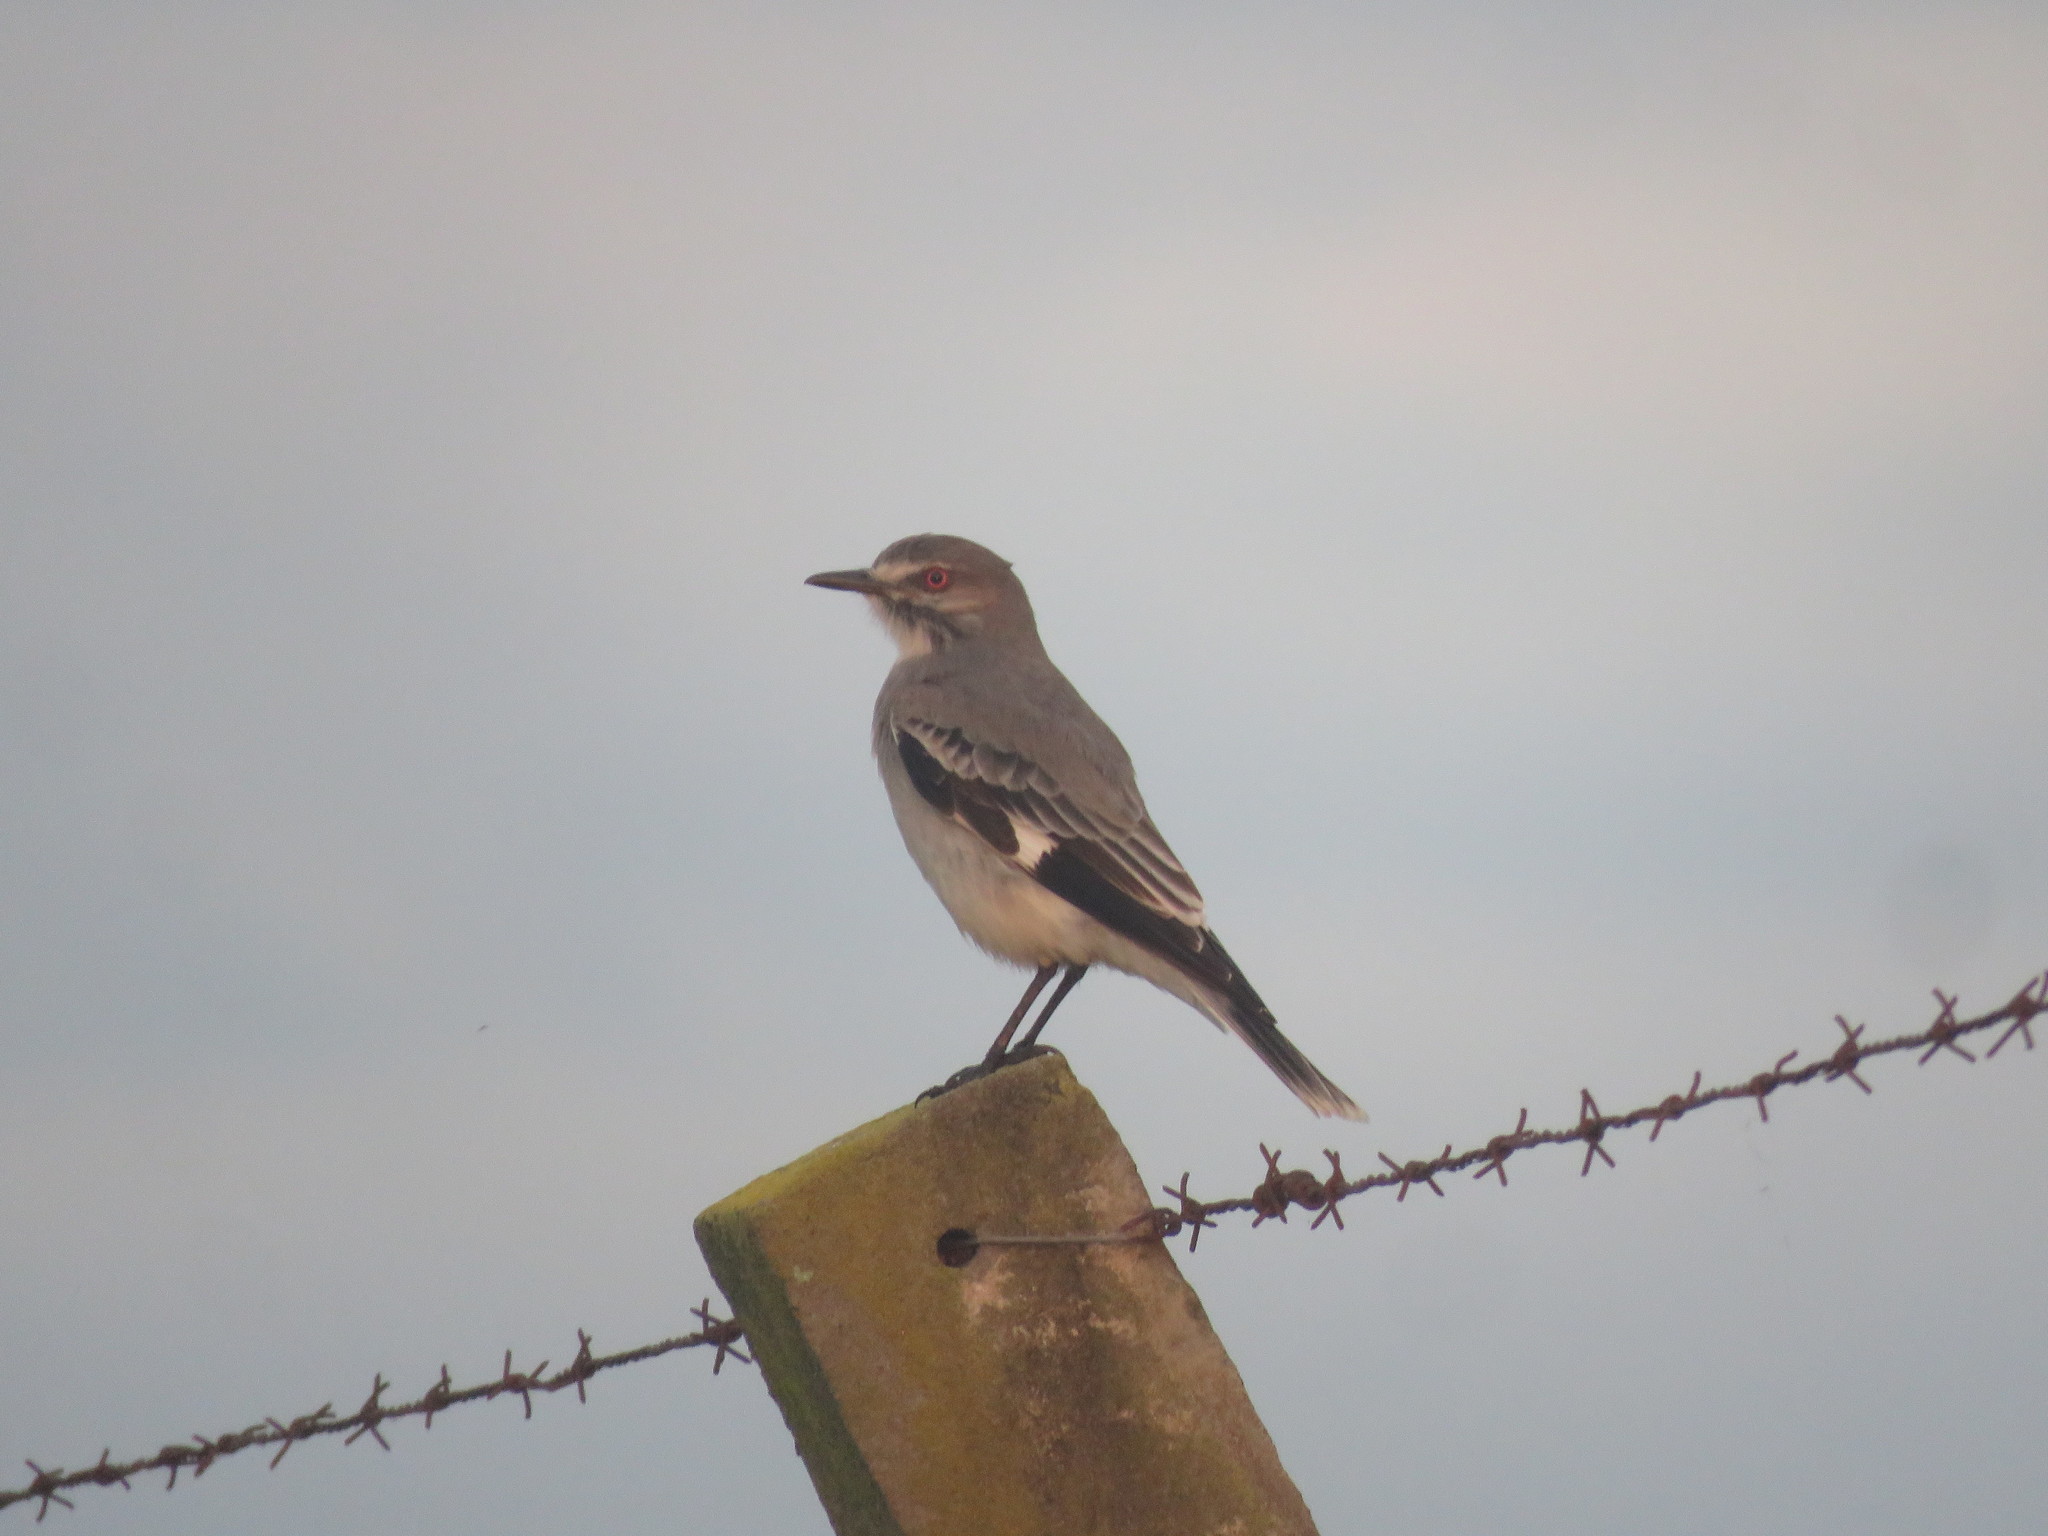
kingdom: Animalia
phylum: Chordata
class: Aves
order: Passeriformes
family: Tyrannidae
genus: Xolmis
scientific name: Xolmis cinereus
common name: Grey monjita
